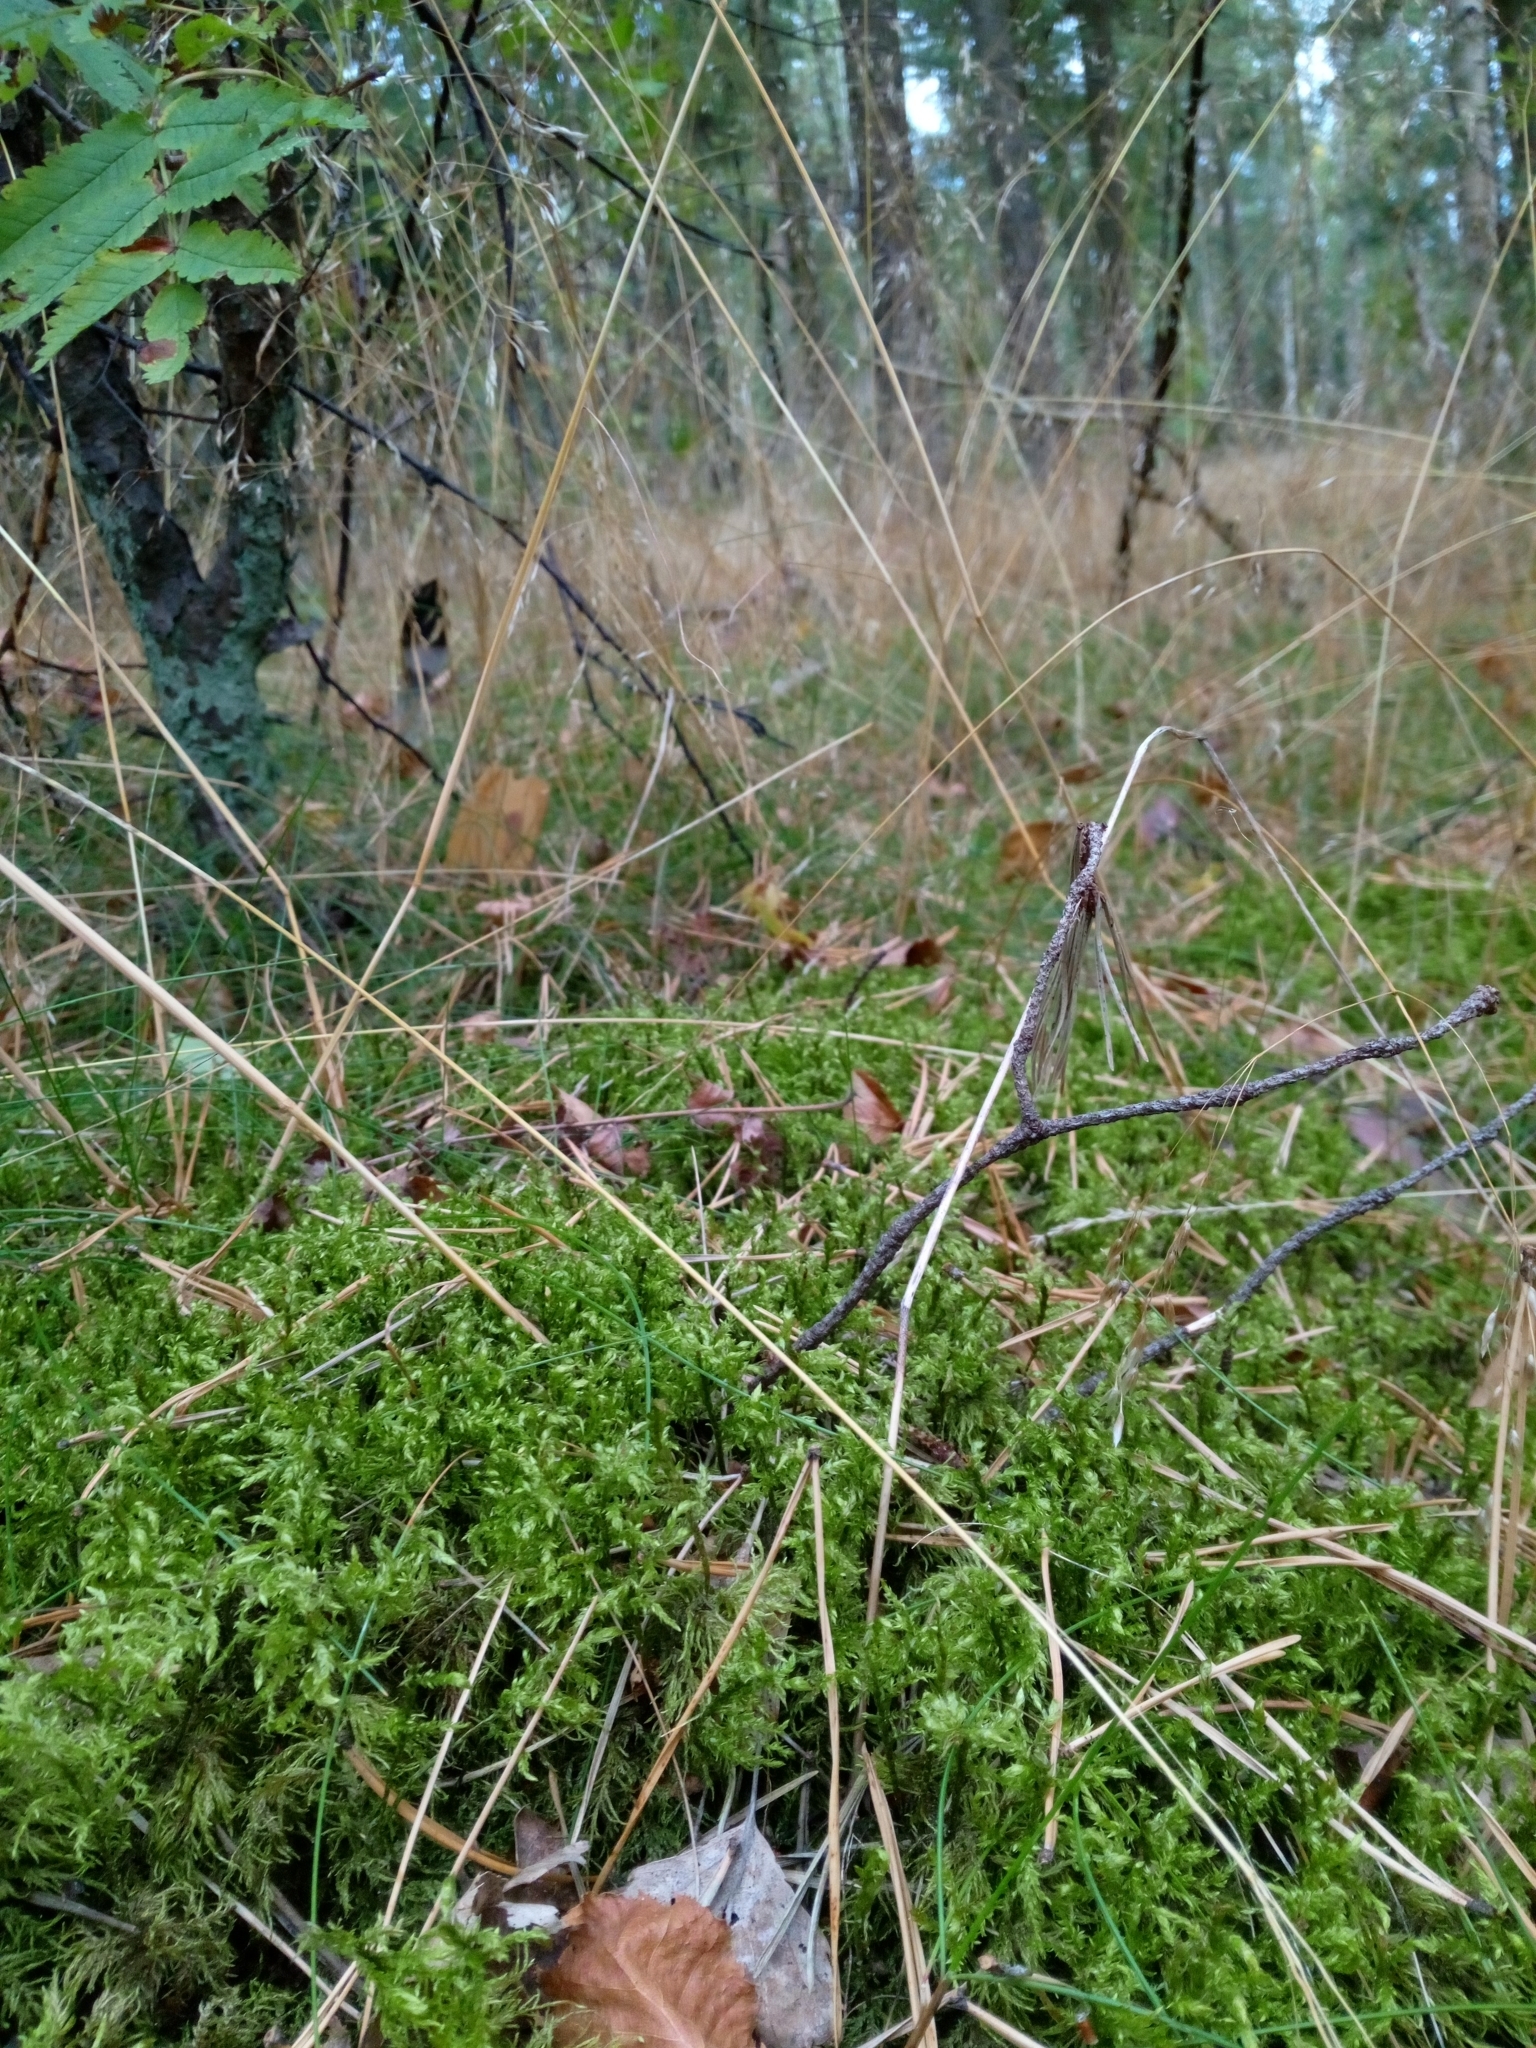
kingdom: Plantae
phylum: Bryophyta
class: Bryopsida
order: Hypnales
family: Hylocomiaceae
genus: Hylocomium
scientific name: Hylocomium splendens
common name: Stairstep moss
